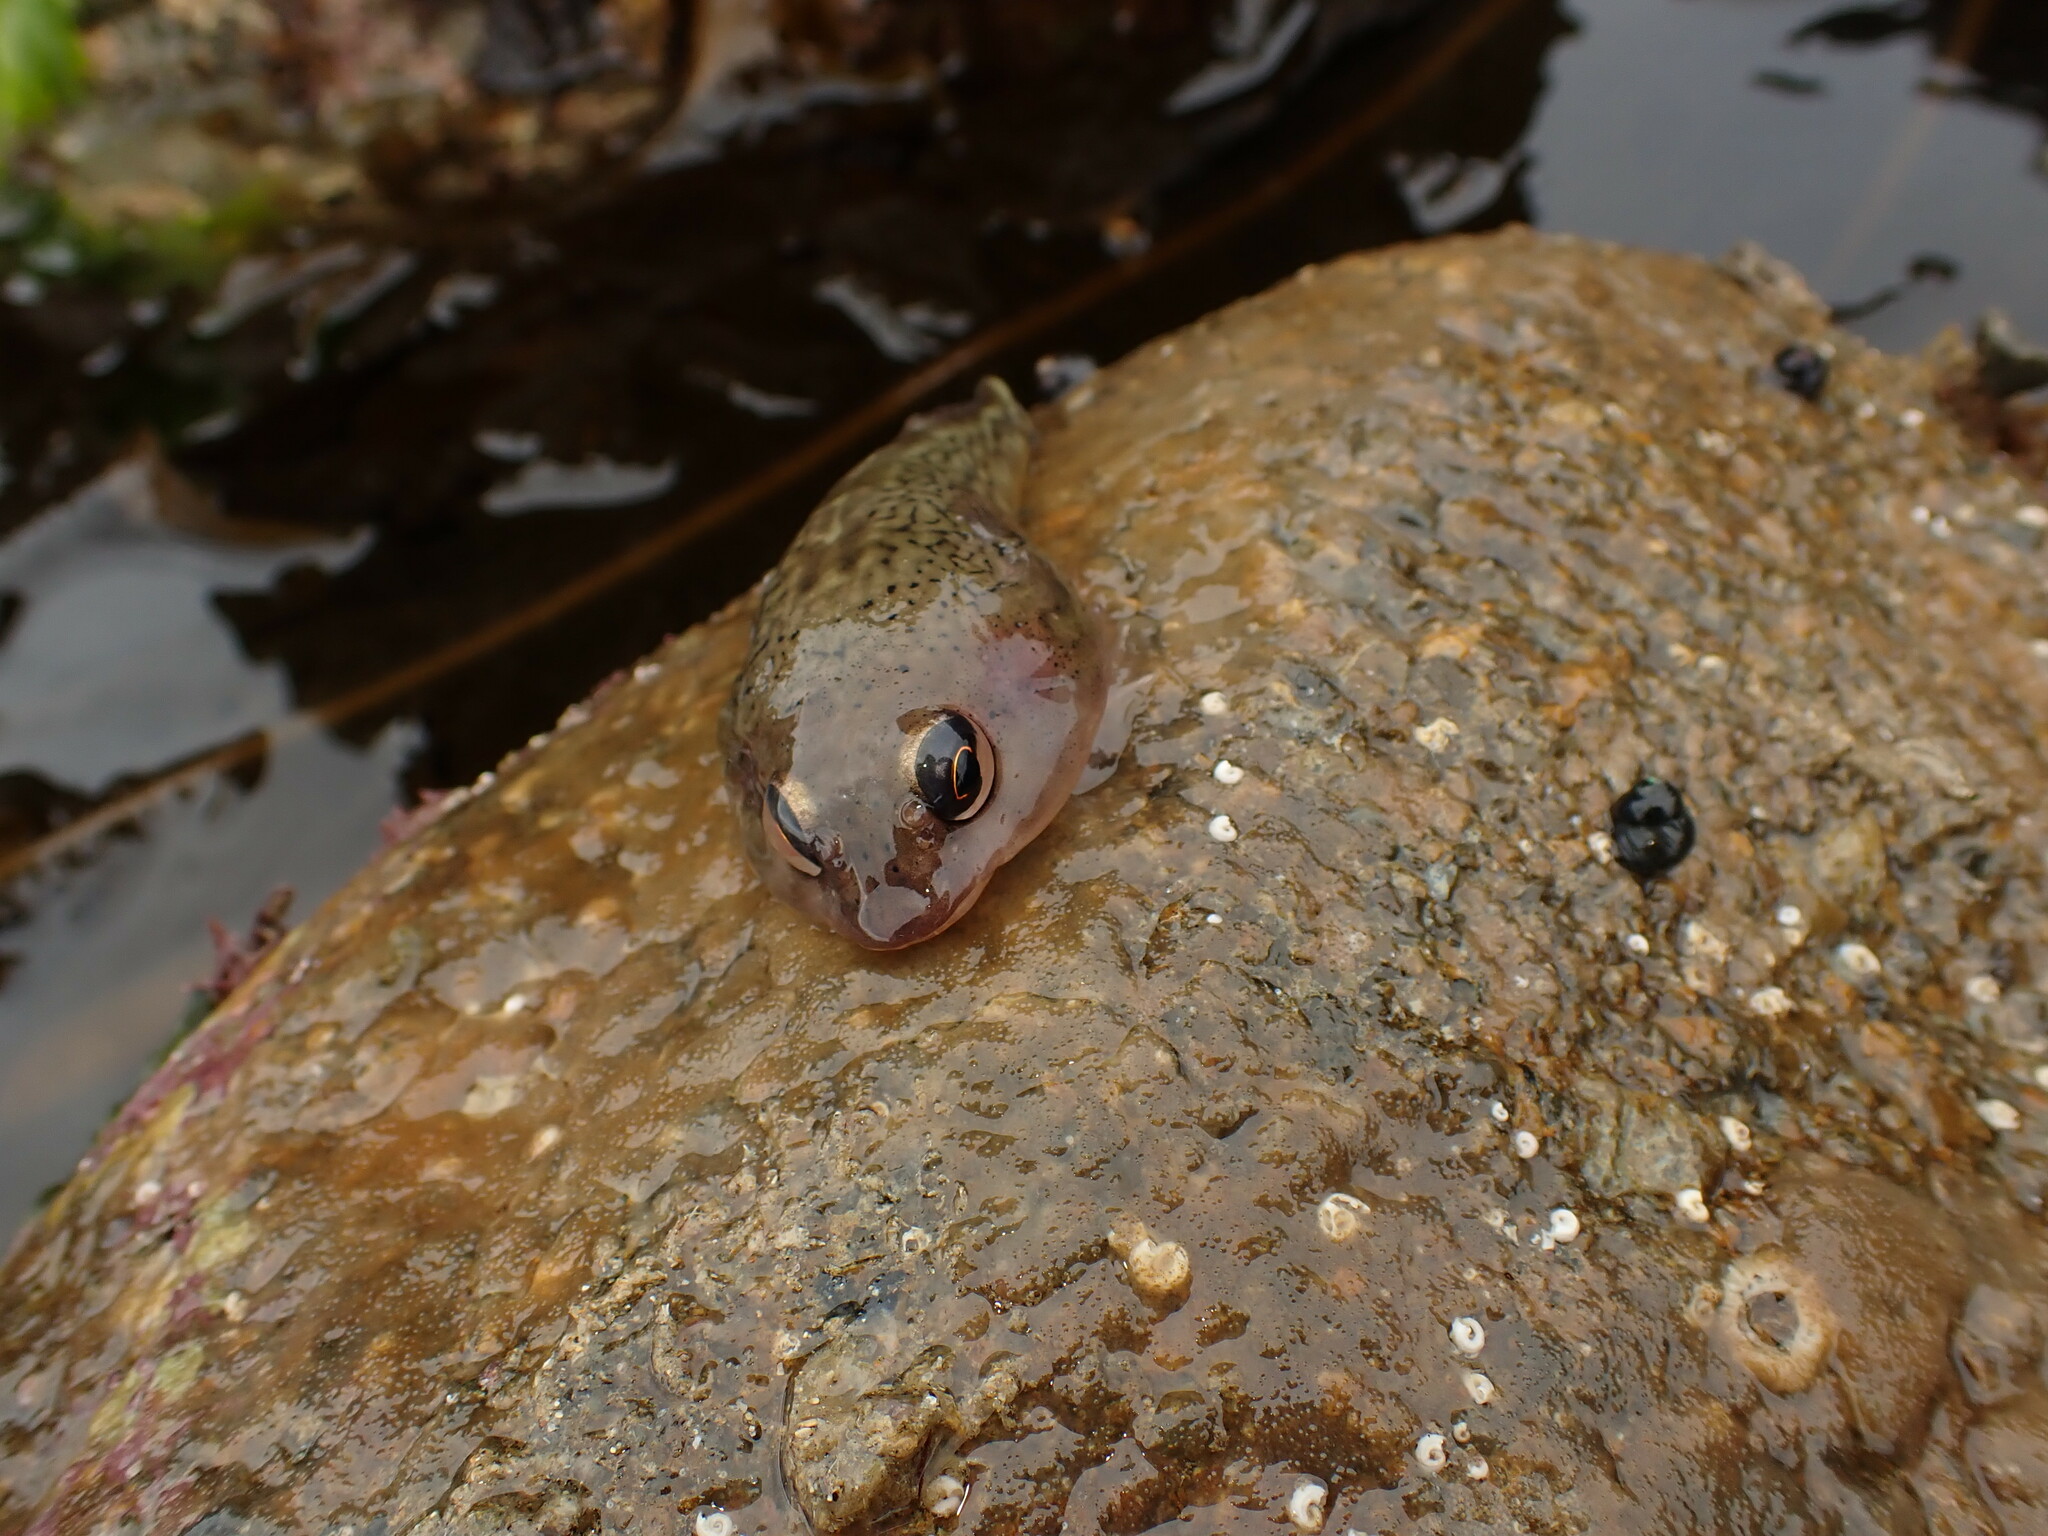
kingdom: Animalia
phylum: Chordata
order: Gobiesociformes
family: Gobiesocidae
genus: Diplocrepis
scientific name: Diplocrepis puniceus
